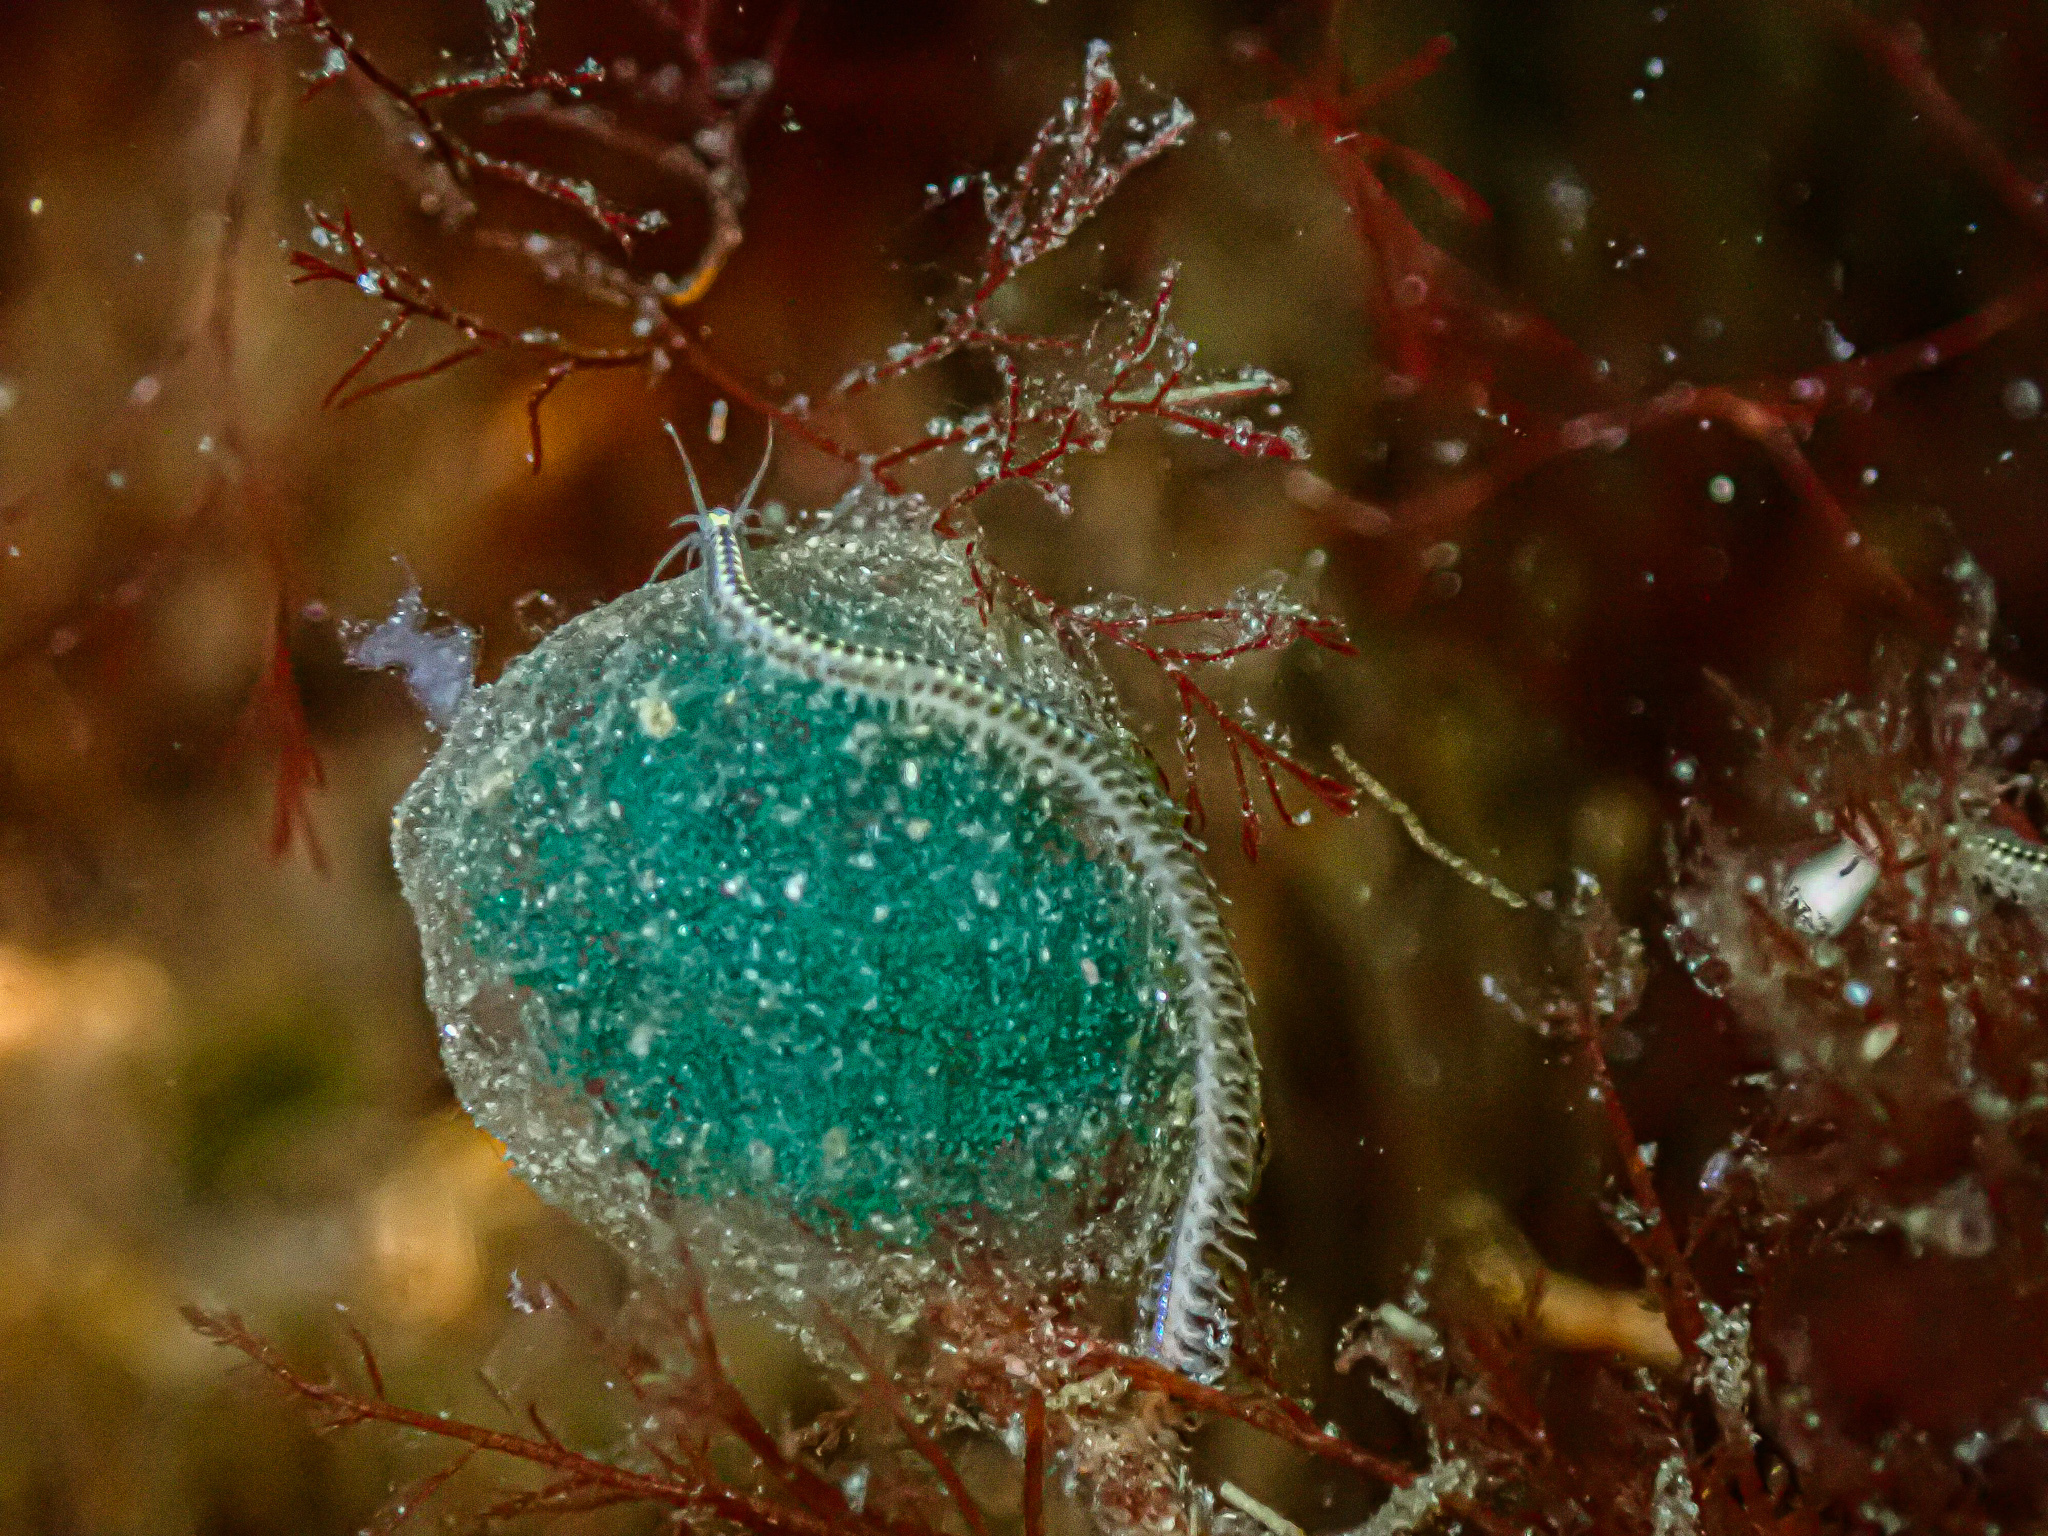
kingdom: Animalia
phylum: Annelida
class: Polychaeta
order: Phyllodocida
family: Phyllodocidae
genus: Phyllodoce
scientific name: Phyllodoce maculata
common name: Spotted leafworm
